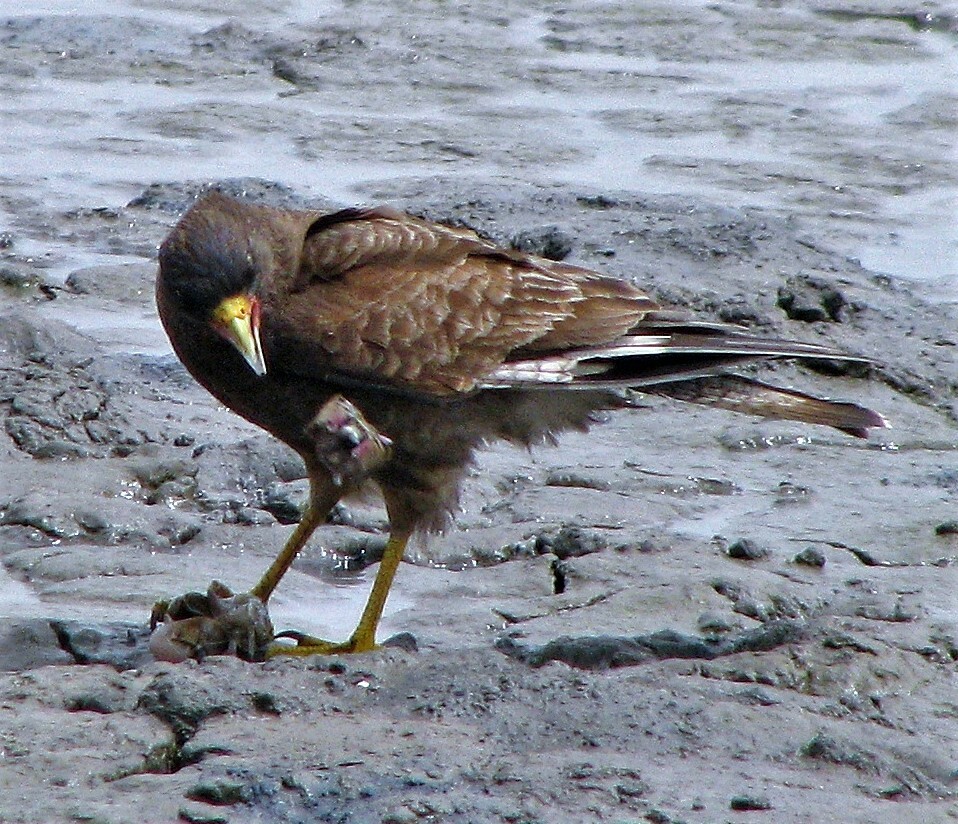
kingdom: Animalia
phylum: Chordata
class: Aves
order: Falconiformes
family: Falconidae
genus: Daptrius
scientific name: Daptrius
